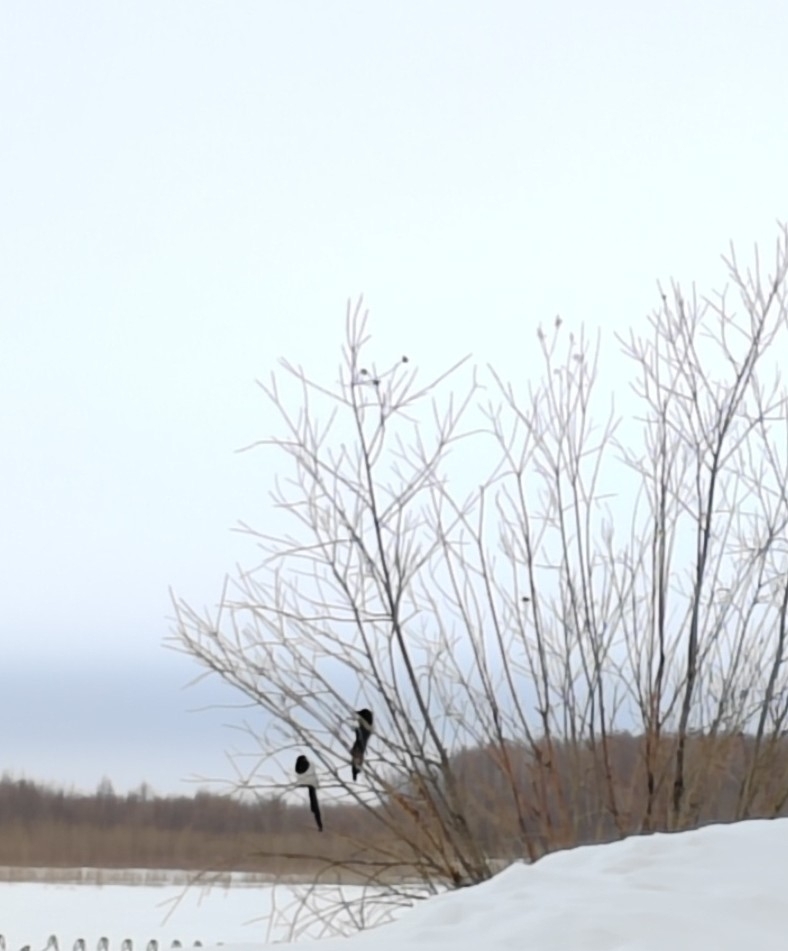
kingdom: Animalia
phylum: Chordata
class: Aves
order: Passeriformes
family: Corvidae
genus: Pica
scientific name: Pica pica
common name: Eurasian magpie
